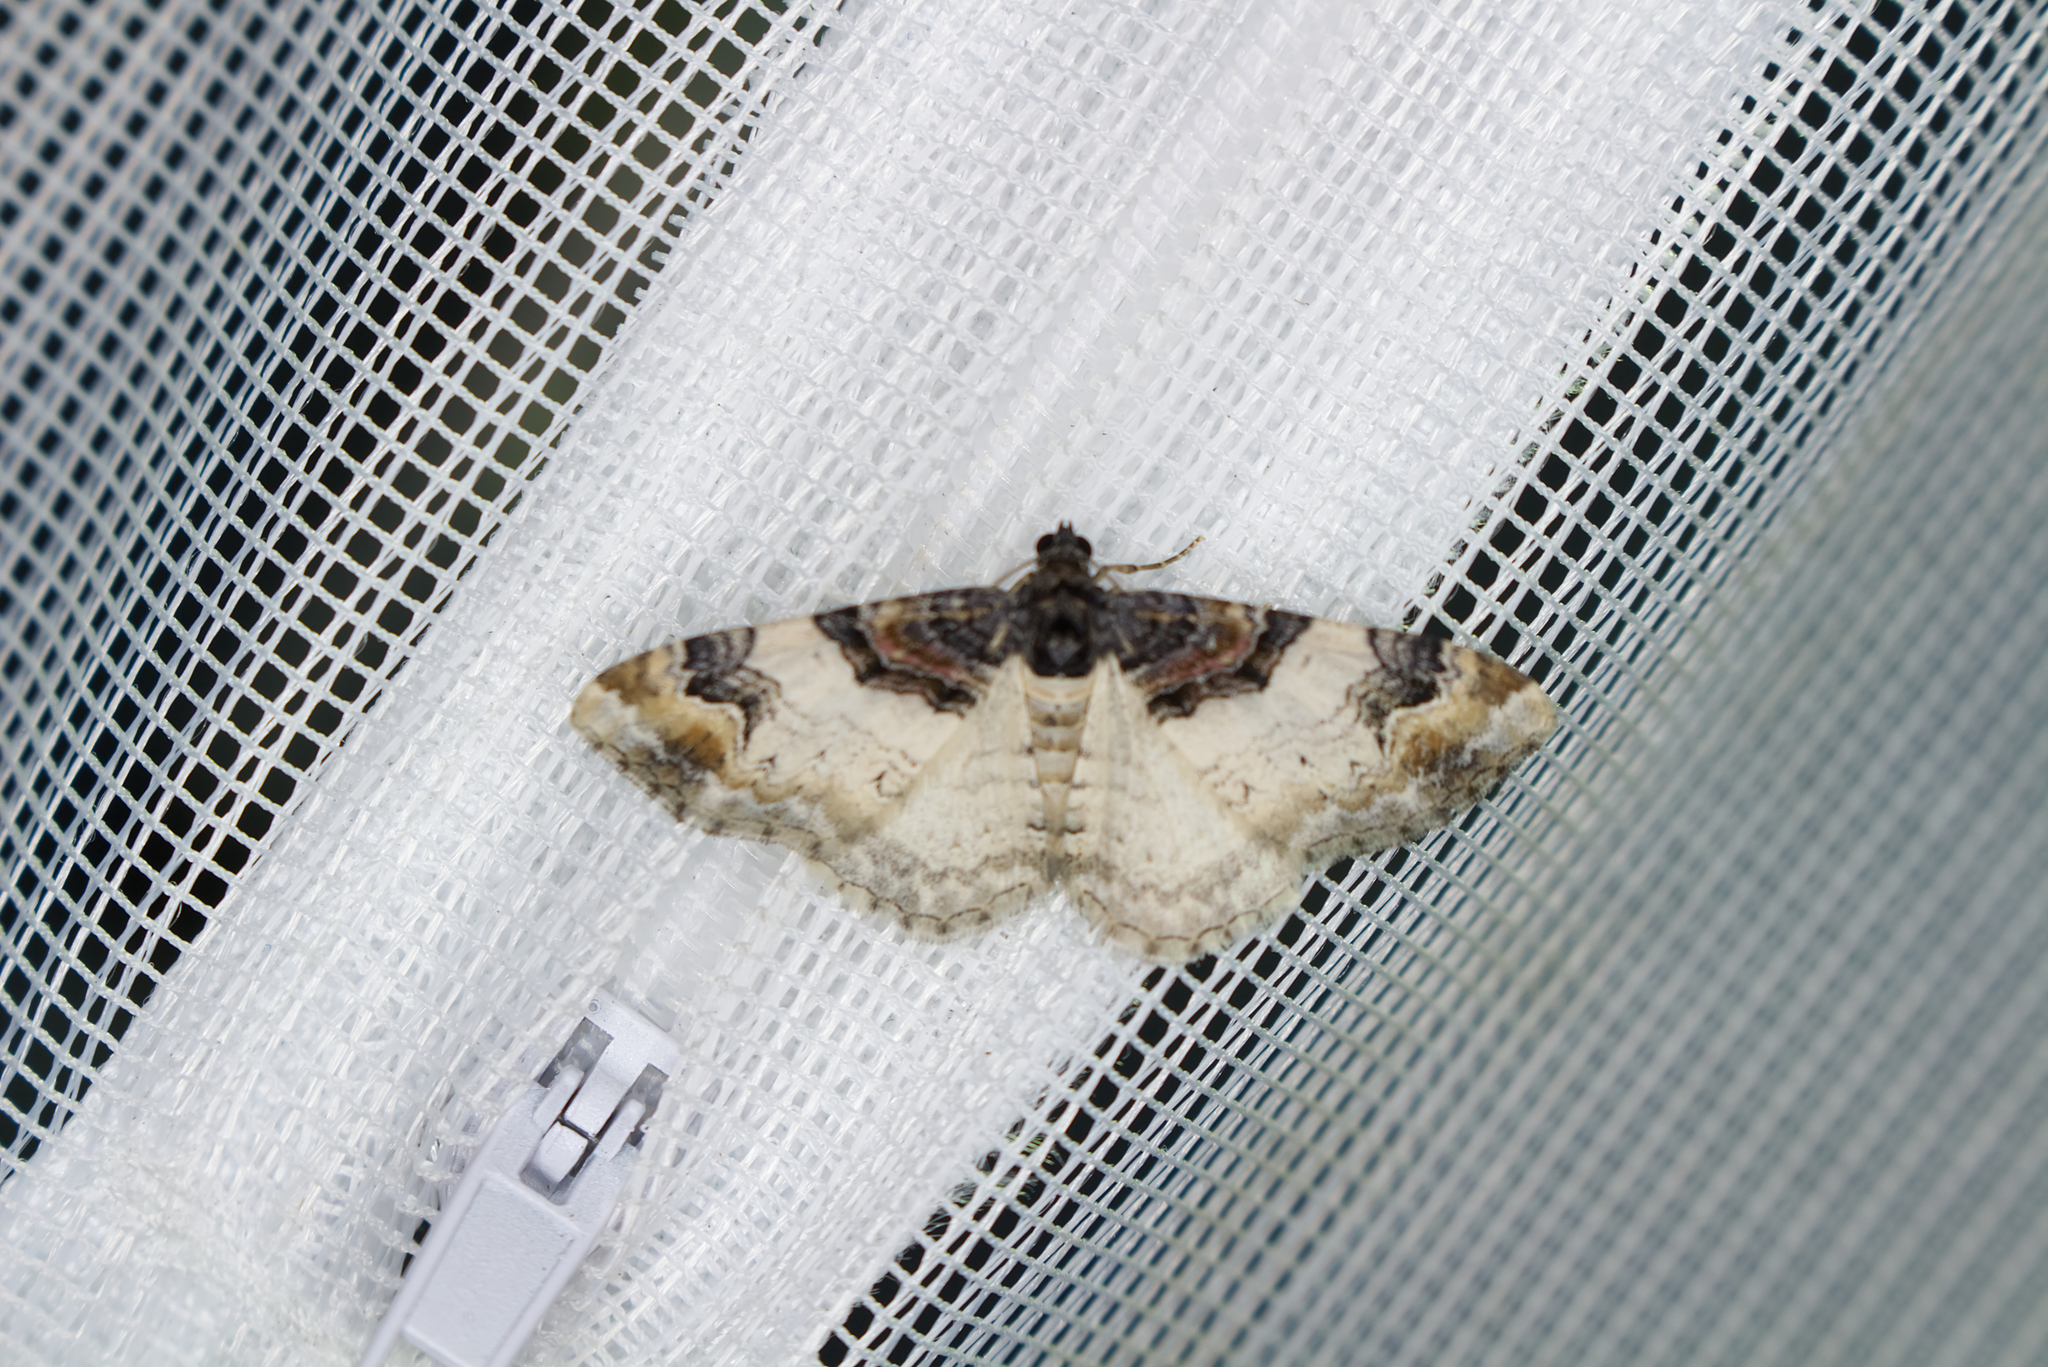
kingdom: Animalia
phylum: Arthropoda
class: Insecta
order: Lepidoptera
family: Geometridae
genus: Catarhoe
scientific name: Catarhoe cuculata
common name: Royal mantle
